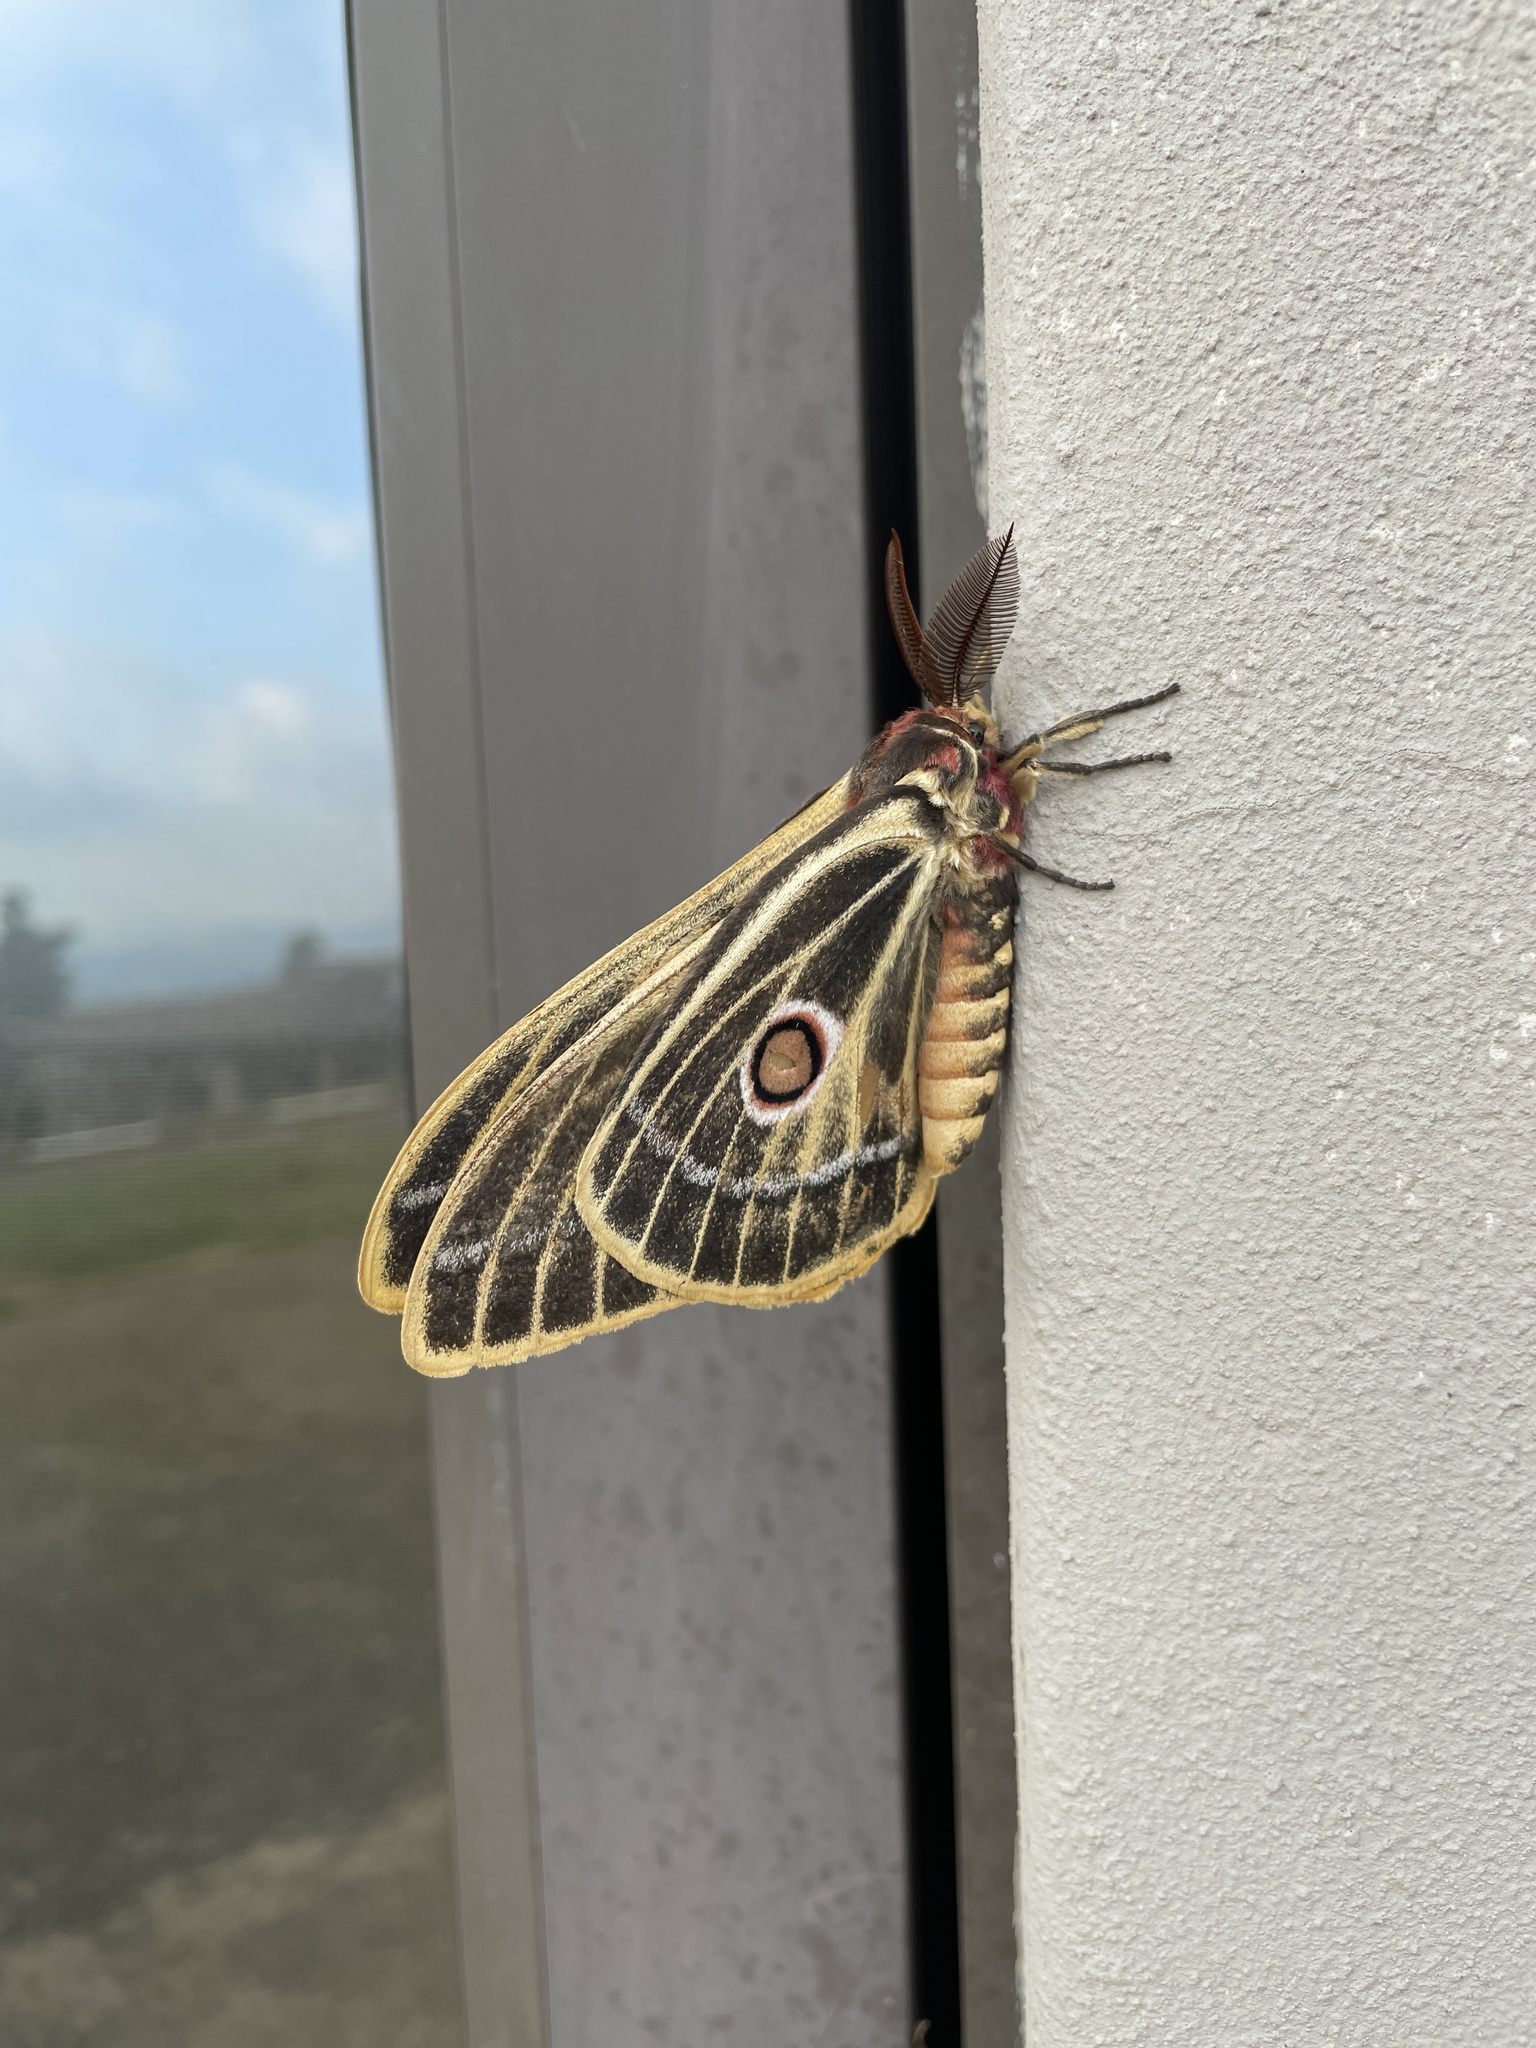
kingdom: Animalia
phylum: Arthropoda
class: Insecta
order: Lepidoptera
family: Saturniidae
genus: Bunaeopsis
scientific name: Bunaeopsis arabella
